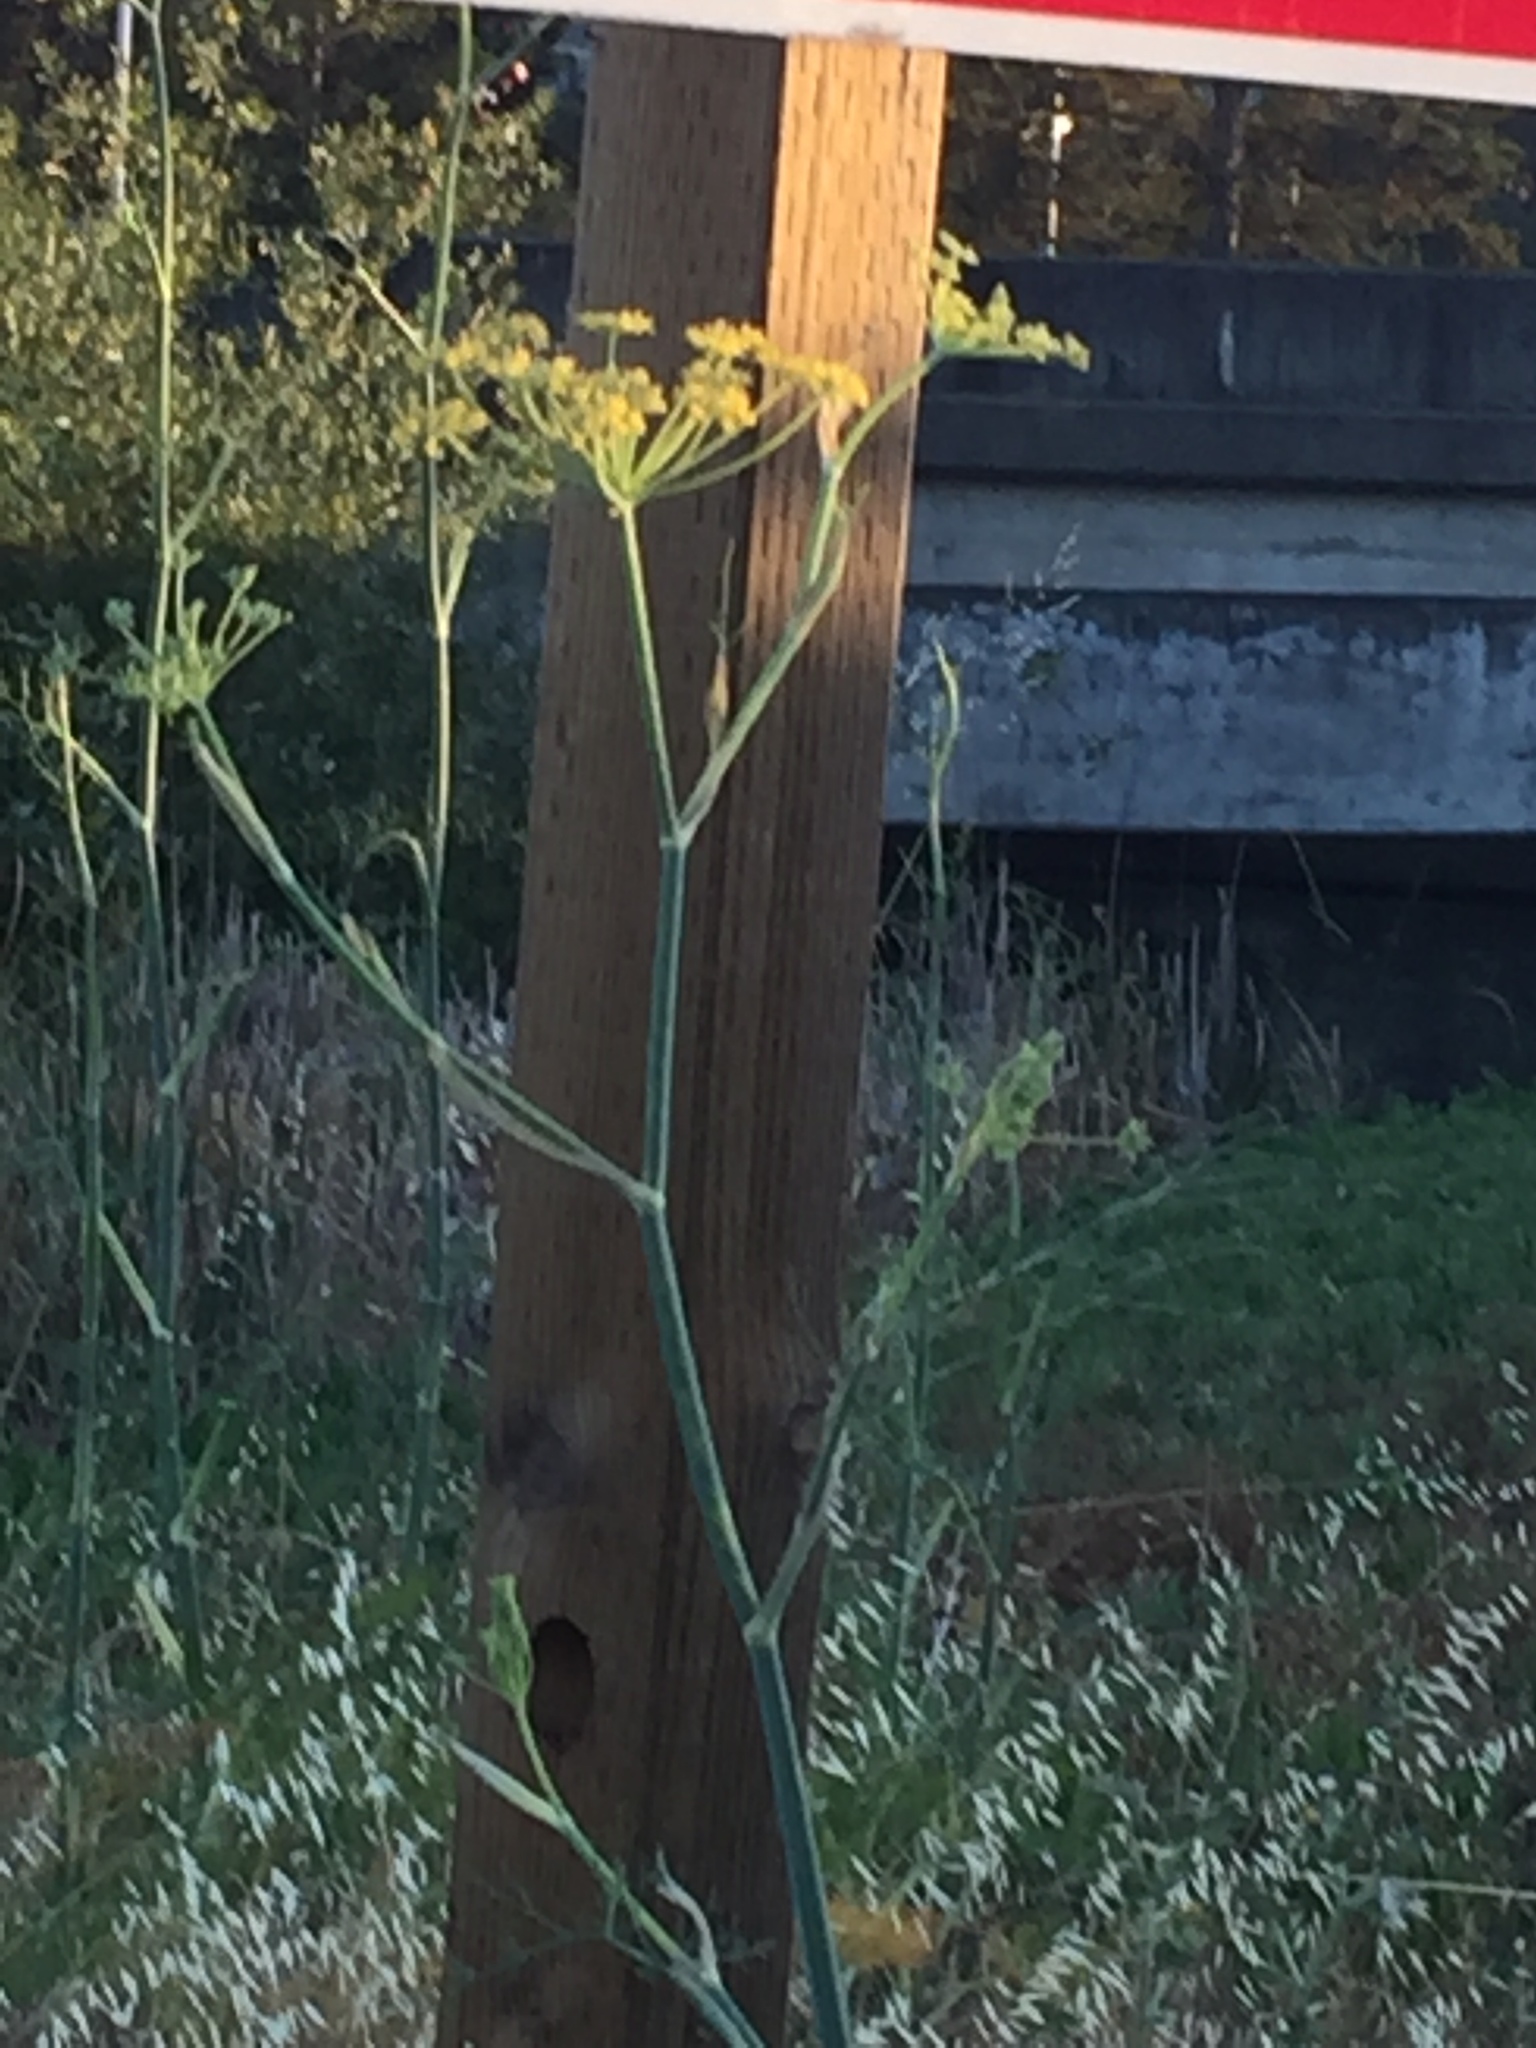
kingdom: Plantae
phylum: Tracheophyta
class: Magnoliopsida
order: Apiales
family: Apiaceae
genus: Foeniculum
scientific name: Foeniculum vulgare
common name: Fennel
